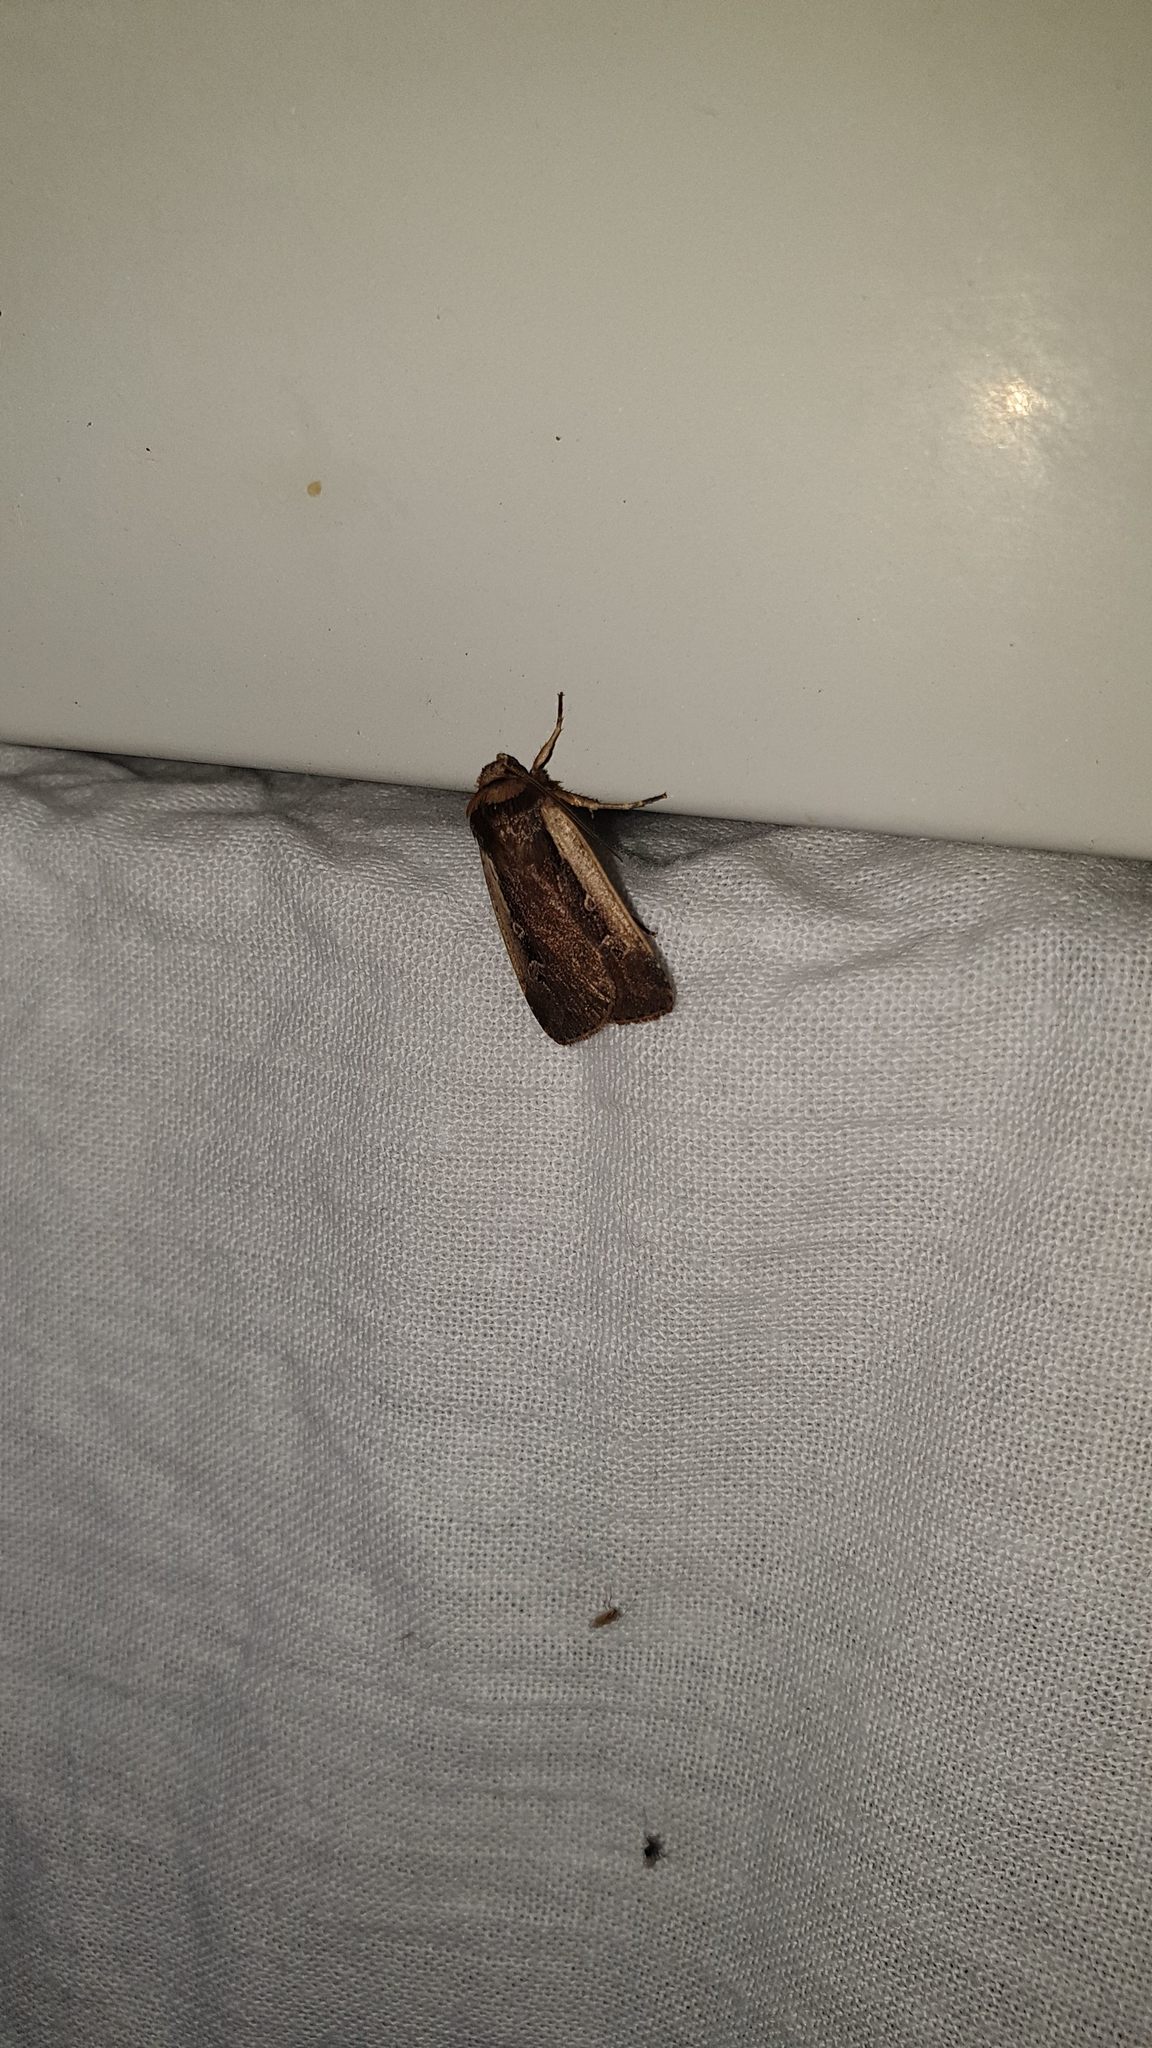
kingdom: Animalia
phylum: Arthropoda
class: Insecta
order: Lepidoptera
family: Noctuidae
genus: Ochropleura
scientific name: Ochropleura plecta
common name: Flame shoulder
